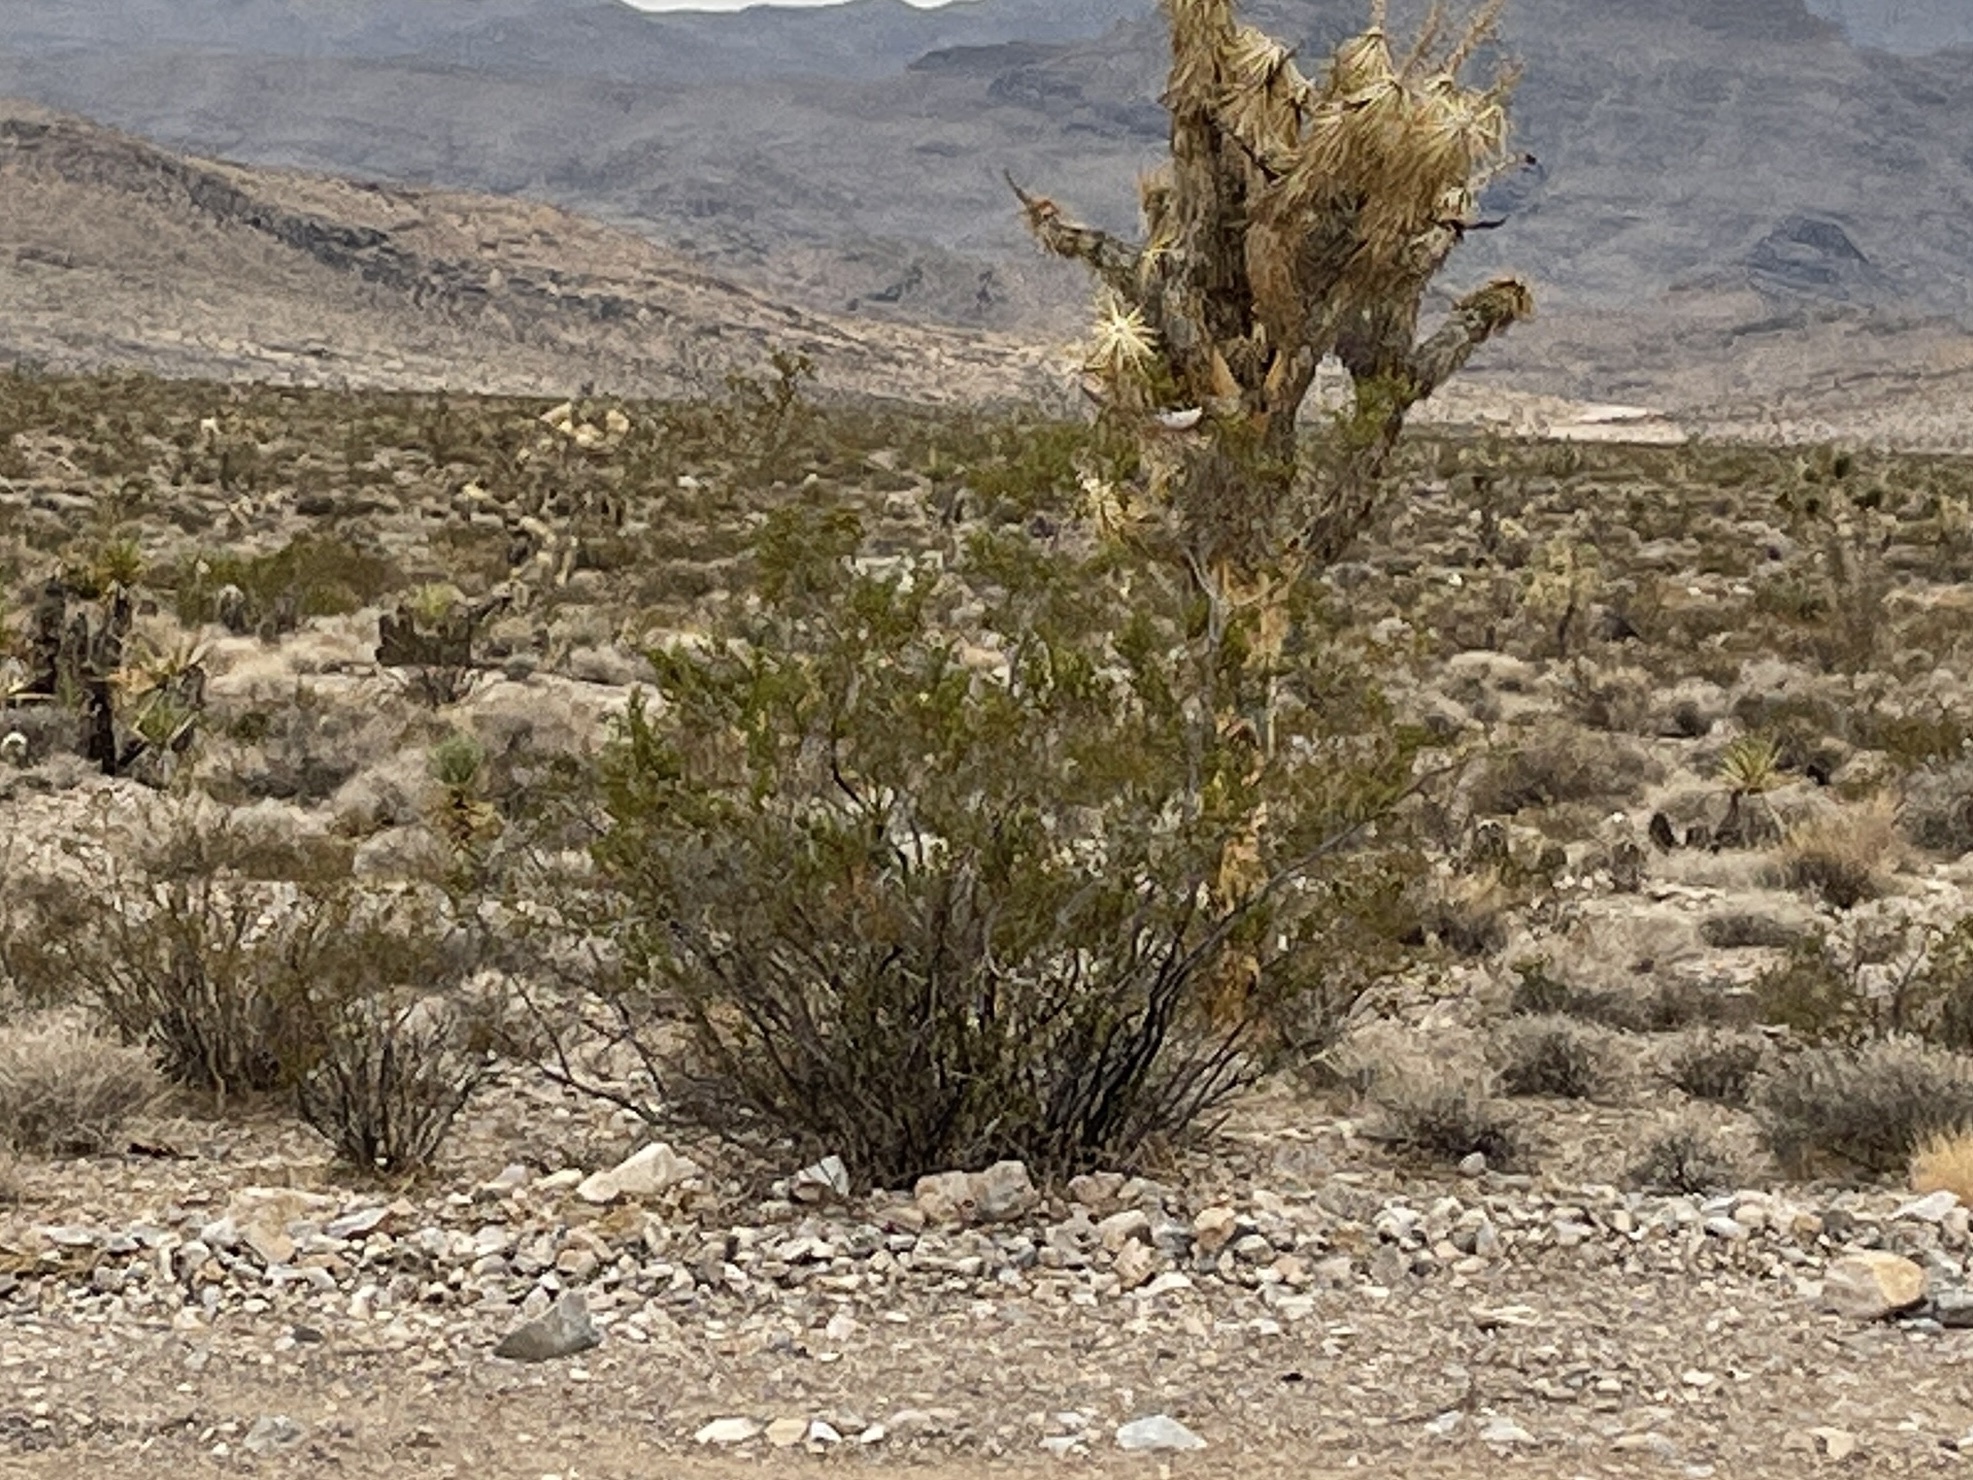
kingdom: Plantae
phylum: Tracheophyta
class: Magnoliopsida
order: Zygophyllales
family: Zygophyllaceae
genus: Larrea
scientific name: Larrea tridentata
